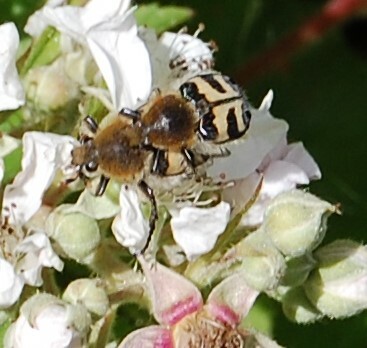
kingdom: Animalia
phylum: Arthropoda
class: Insecta
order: Coleoptera
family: Scarabaeidae
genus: Trichius
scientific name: Trichius fasciatus
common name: Bee beetle
